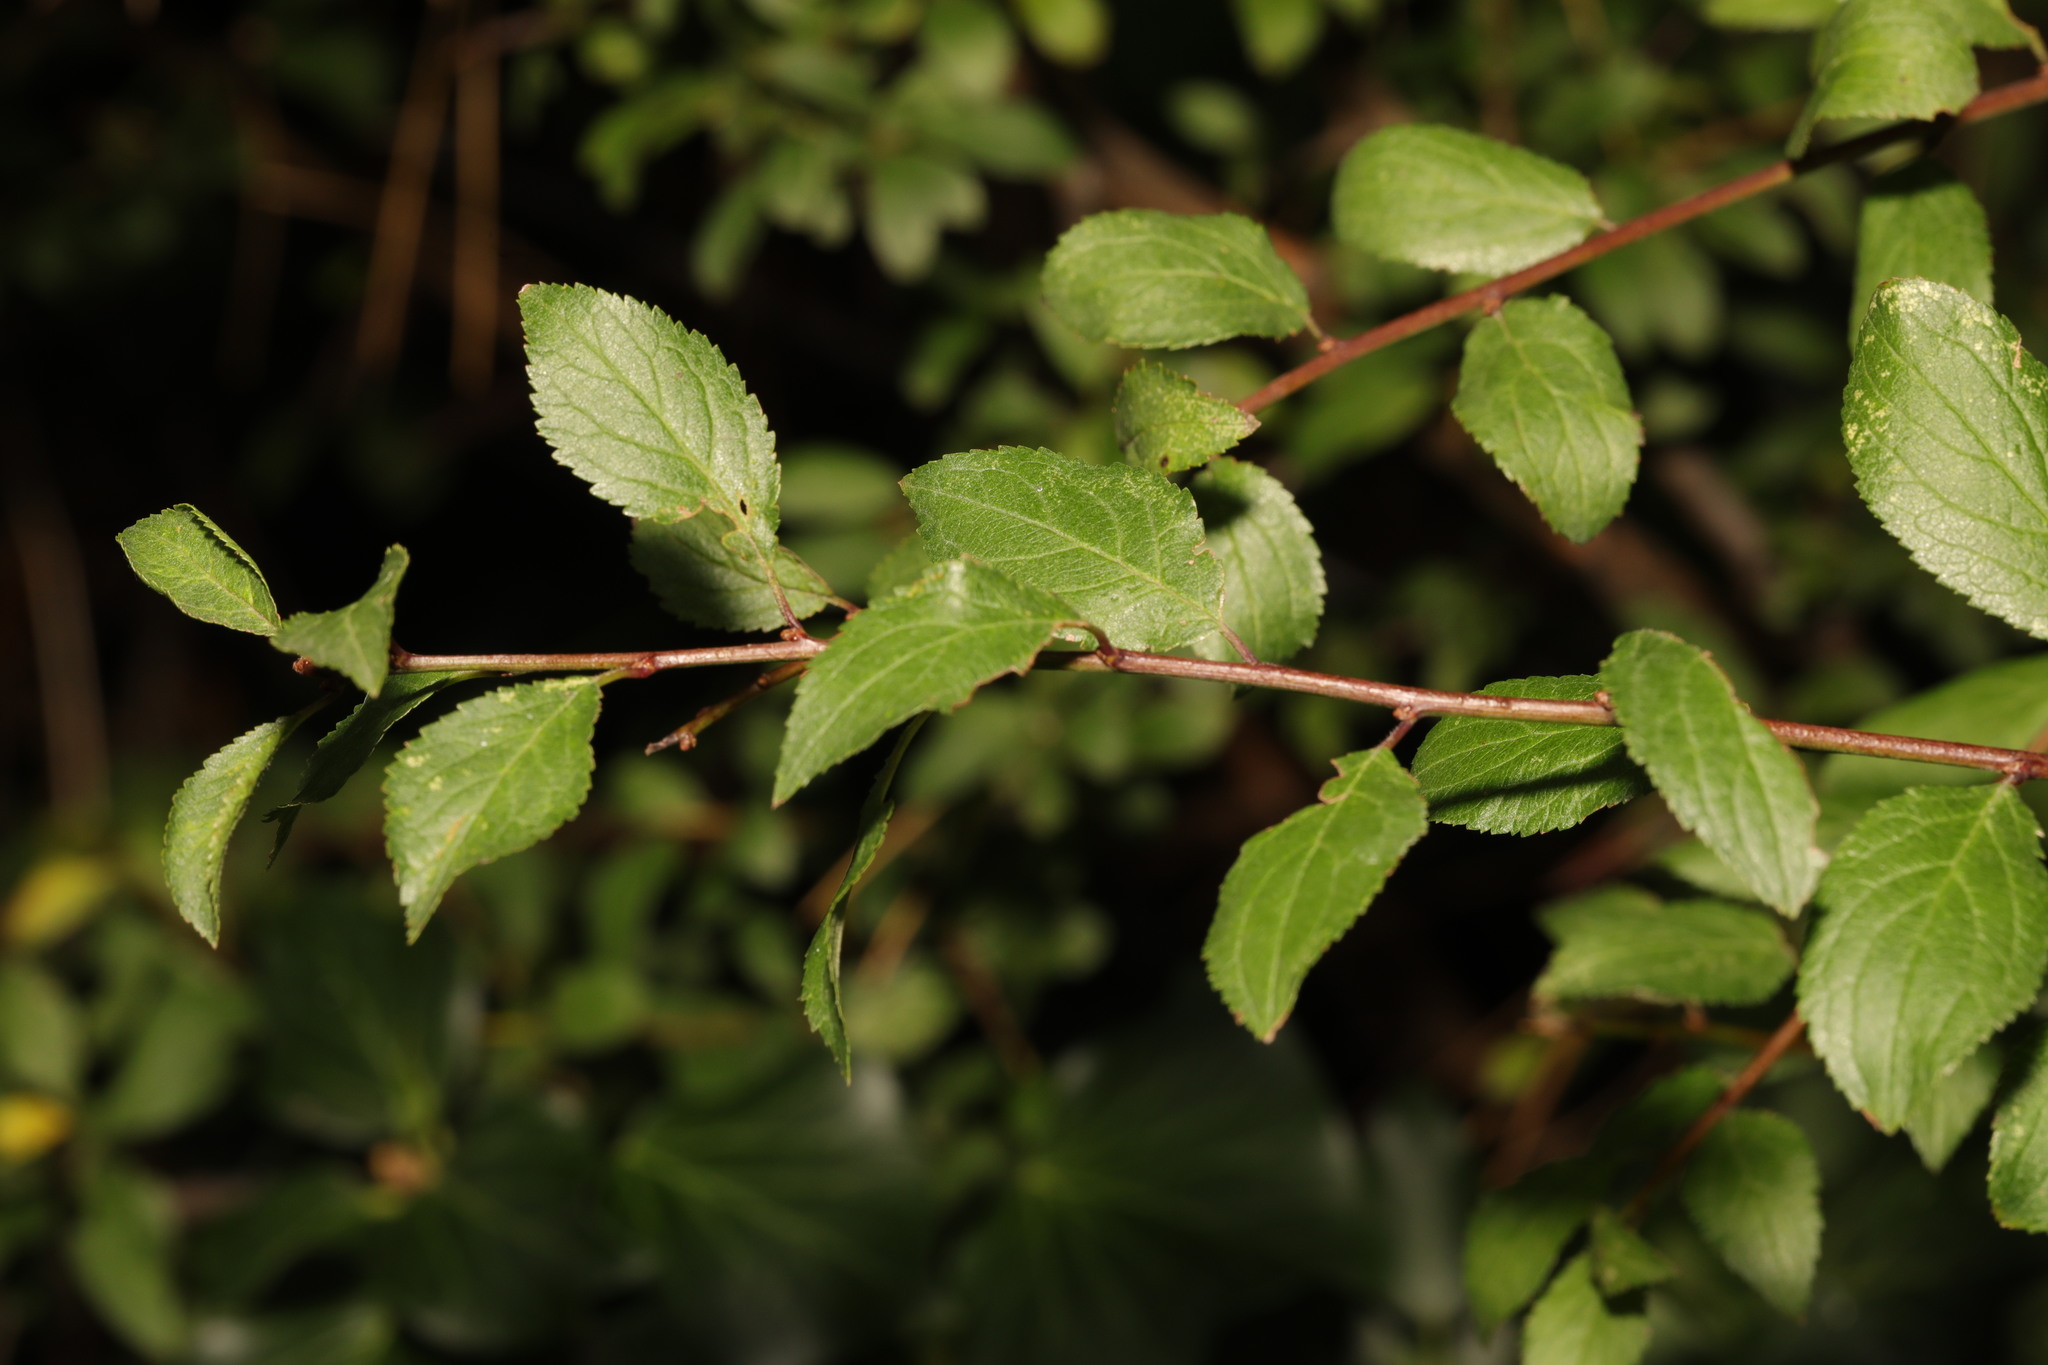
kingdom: Plantae
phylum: Tracheophyta
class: Magnoliopsida
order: Rosales
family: Rosaceae
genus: Prunus
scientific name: Prunus spinosa
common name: Blackthorn
